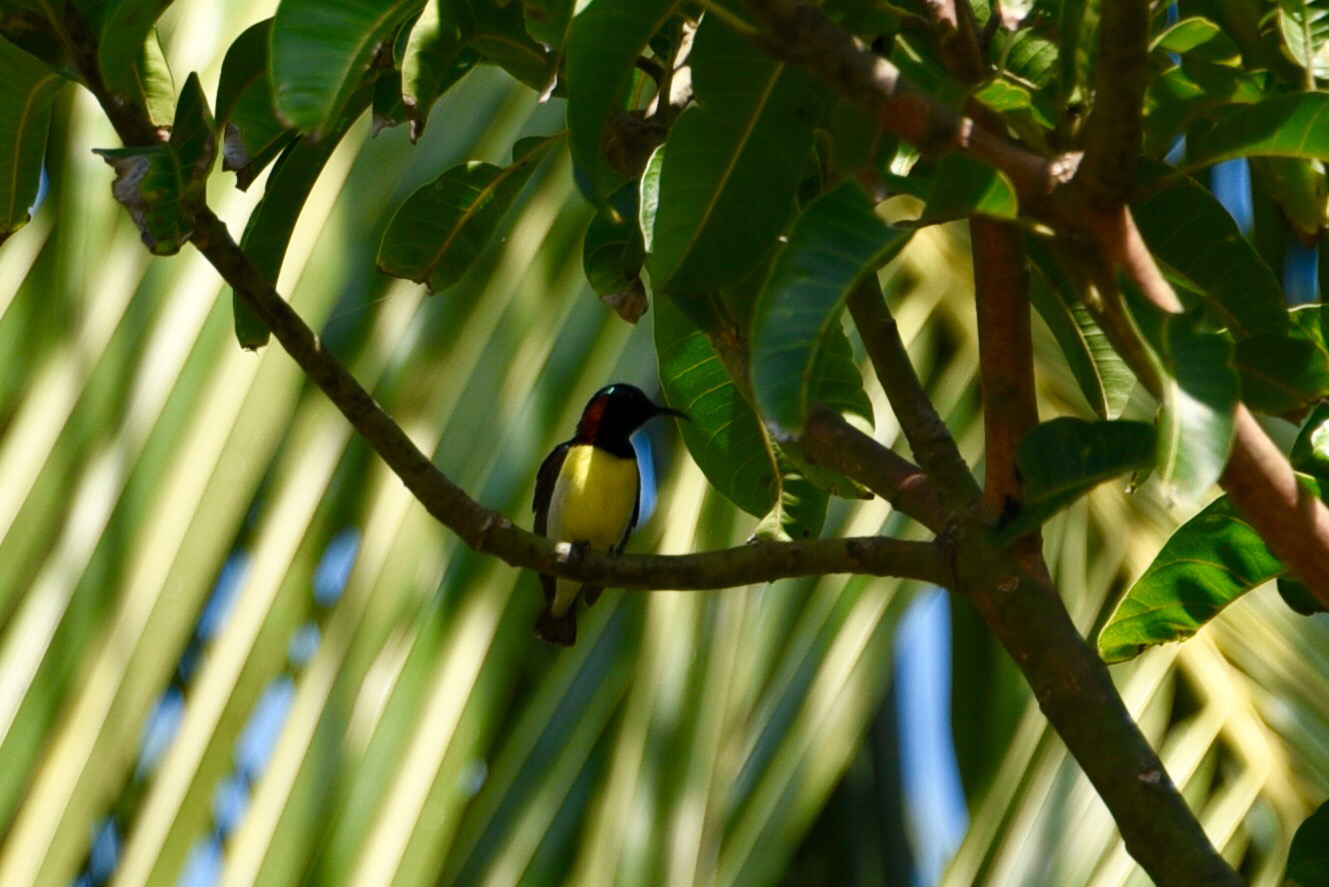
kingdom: Animalia
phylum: Chordata
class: Aves
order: Passeriformes
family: Nectariniidae
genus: Leptocoma
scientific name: Leptocoma zeylonica
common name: Purple-rumped sunbird
